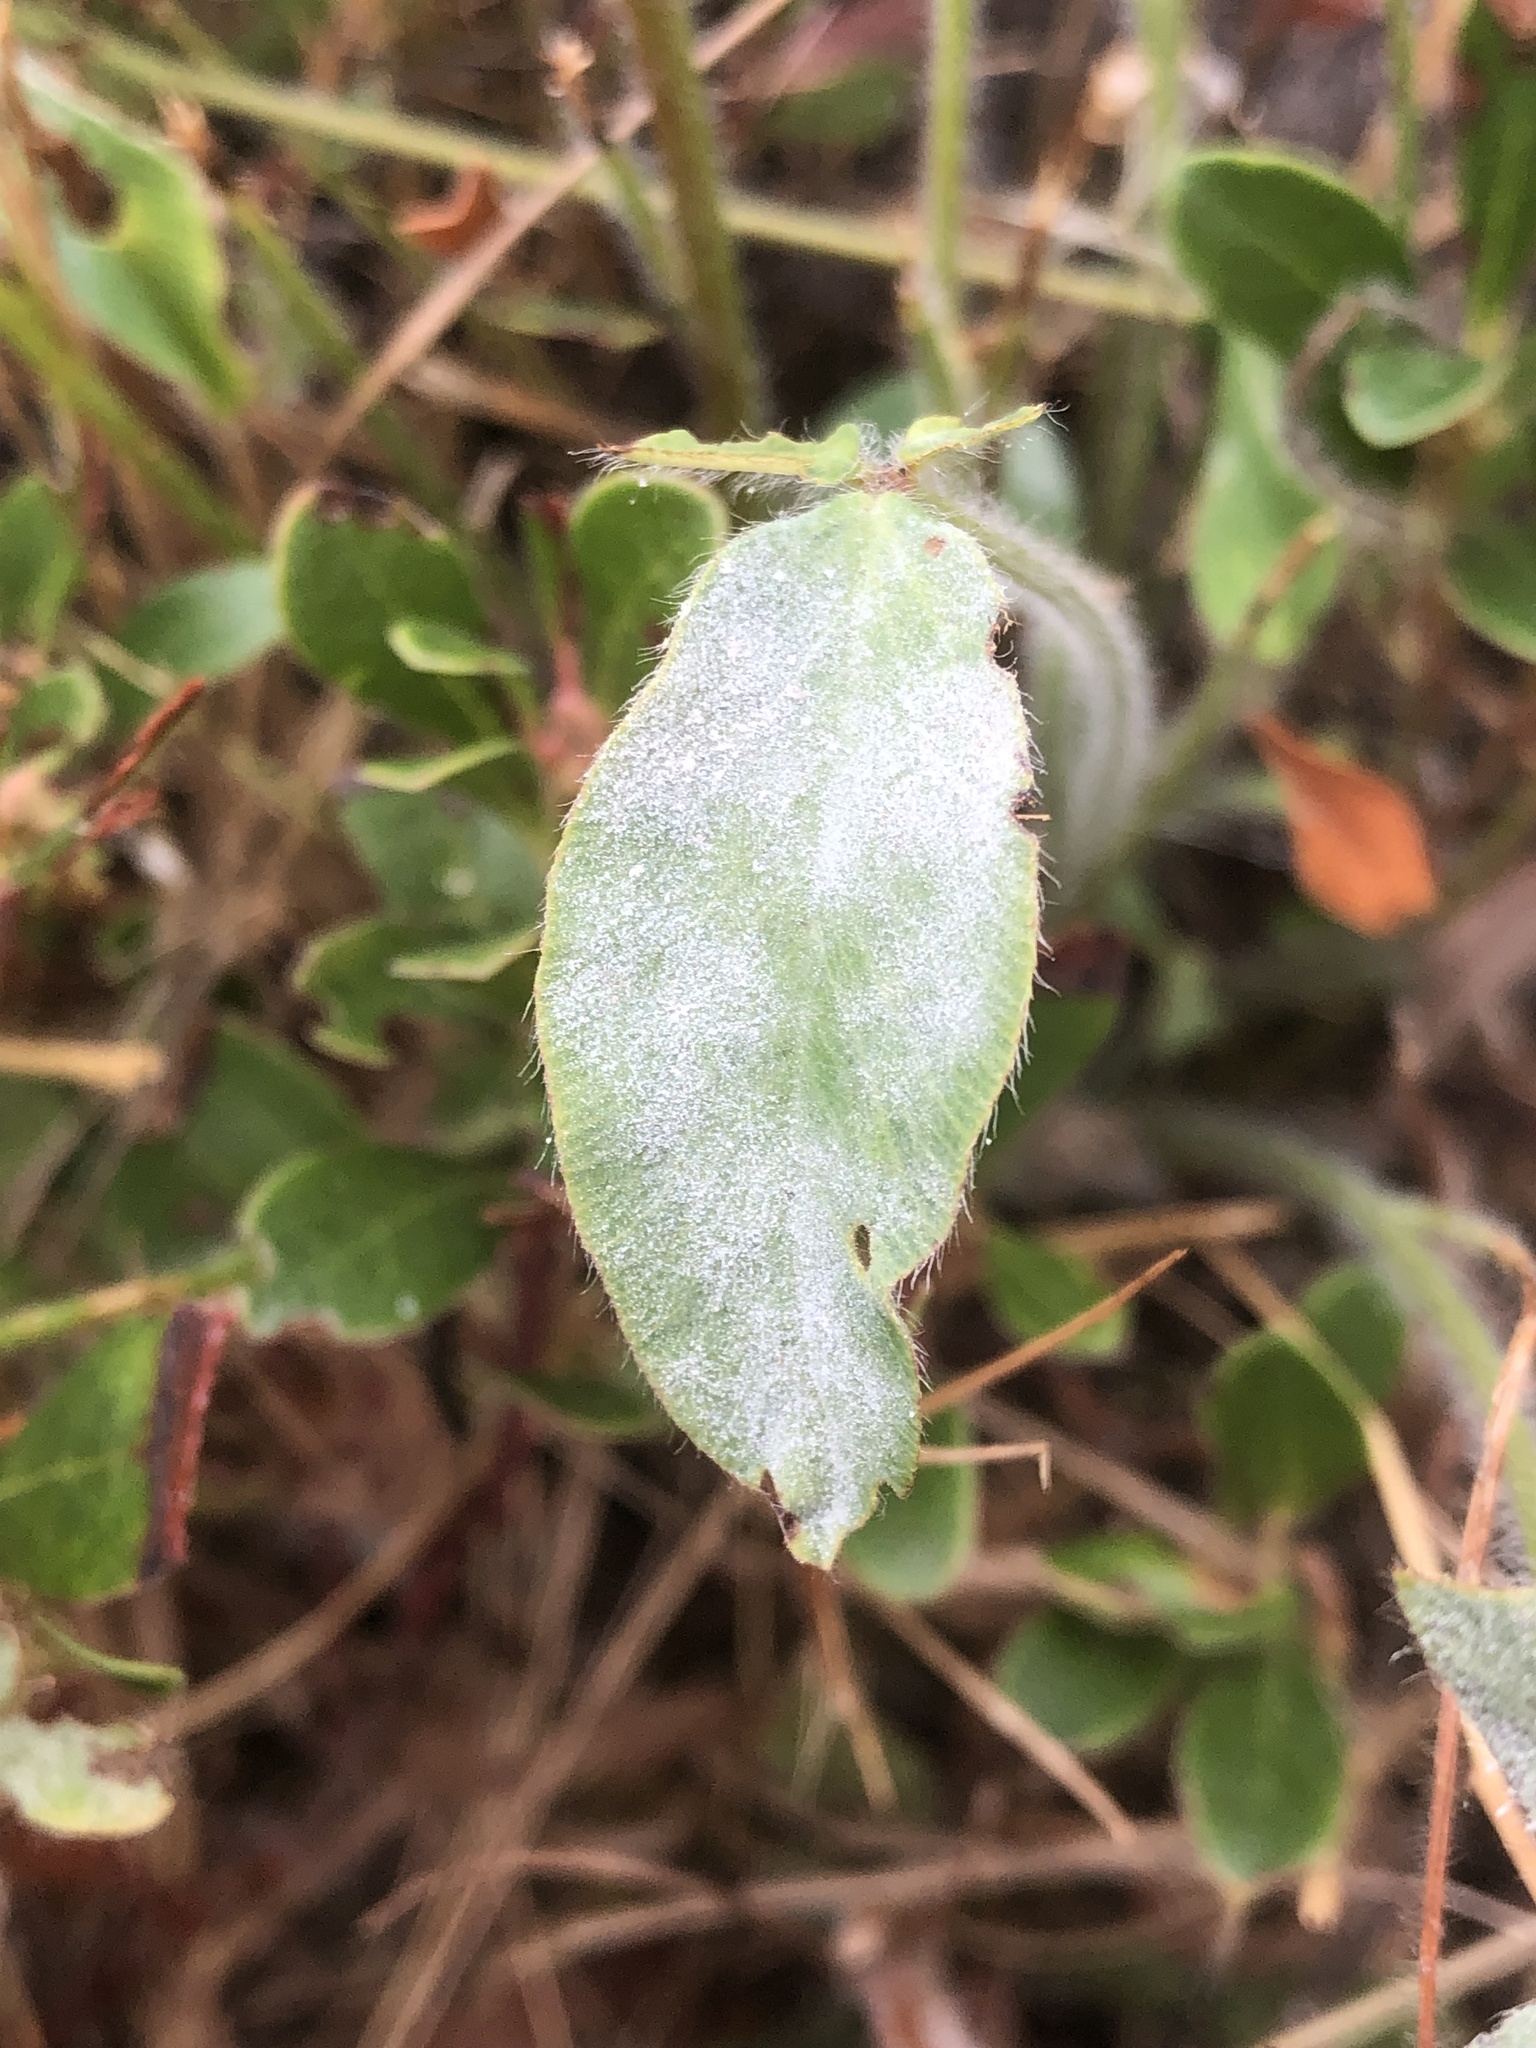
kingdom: Plantae
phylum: Tracheophyta
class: Magnoliopsida
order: Fabales
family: Fabaceae
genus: Trifolium
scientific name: Trifolium pratense
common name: Red clover
